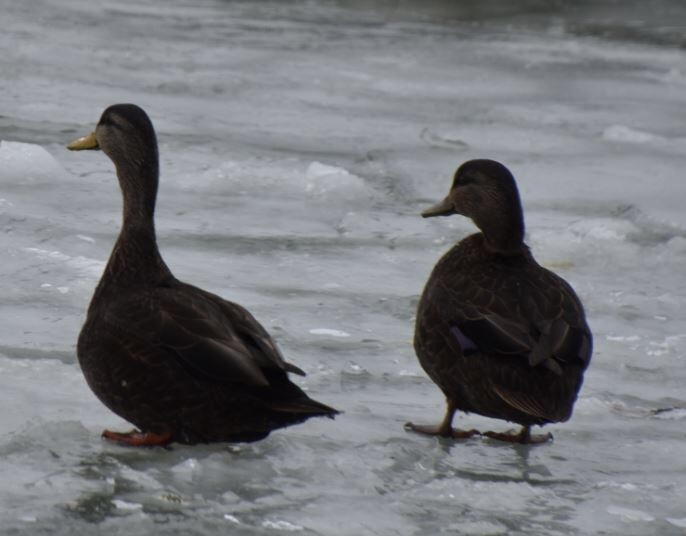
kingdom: Animalia
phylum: Chordata
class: Aves
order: Anseriformes
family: Anatidae
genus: Anas
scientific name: Anas rubripes
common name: American black duck
